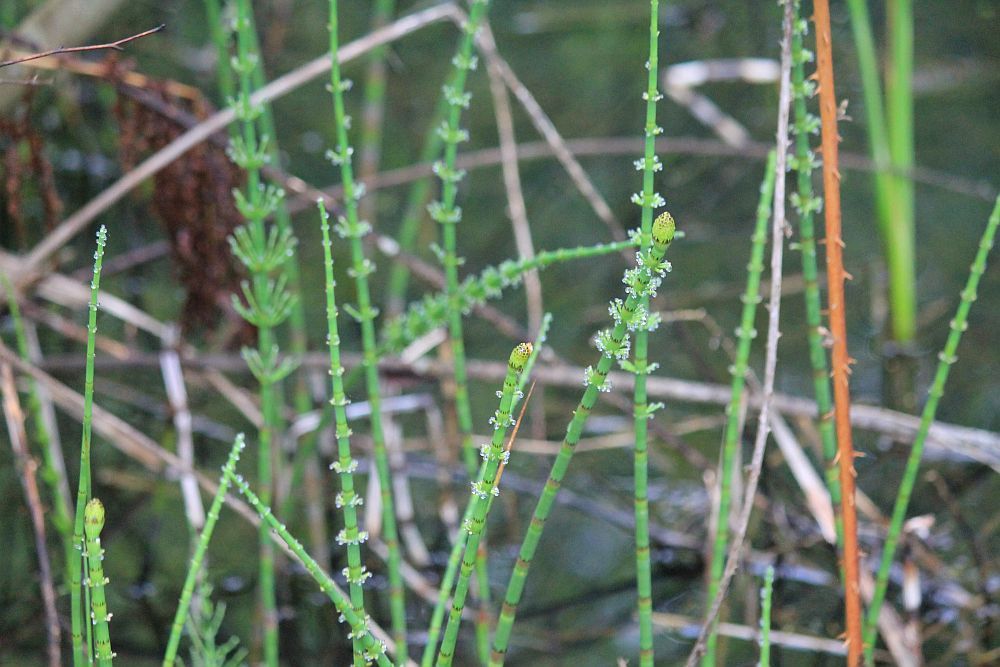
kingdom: Plantae
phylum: Tracheophyta
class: Polypodiopsida
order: Equisetales
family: Equisetaceae
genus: Equisetum
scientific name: Equisetum fluviatile
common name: Water horsetail
